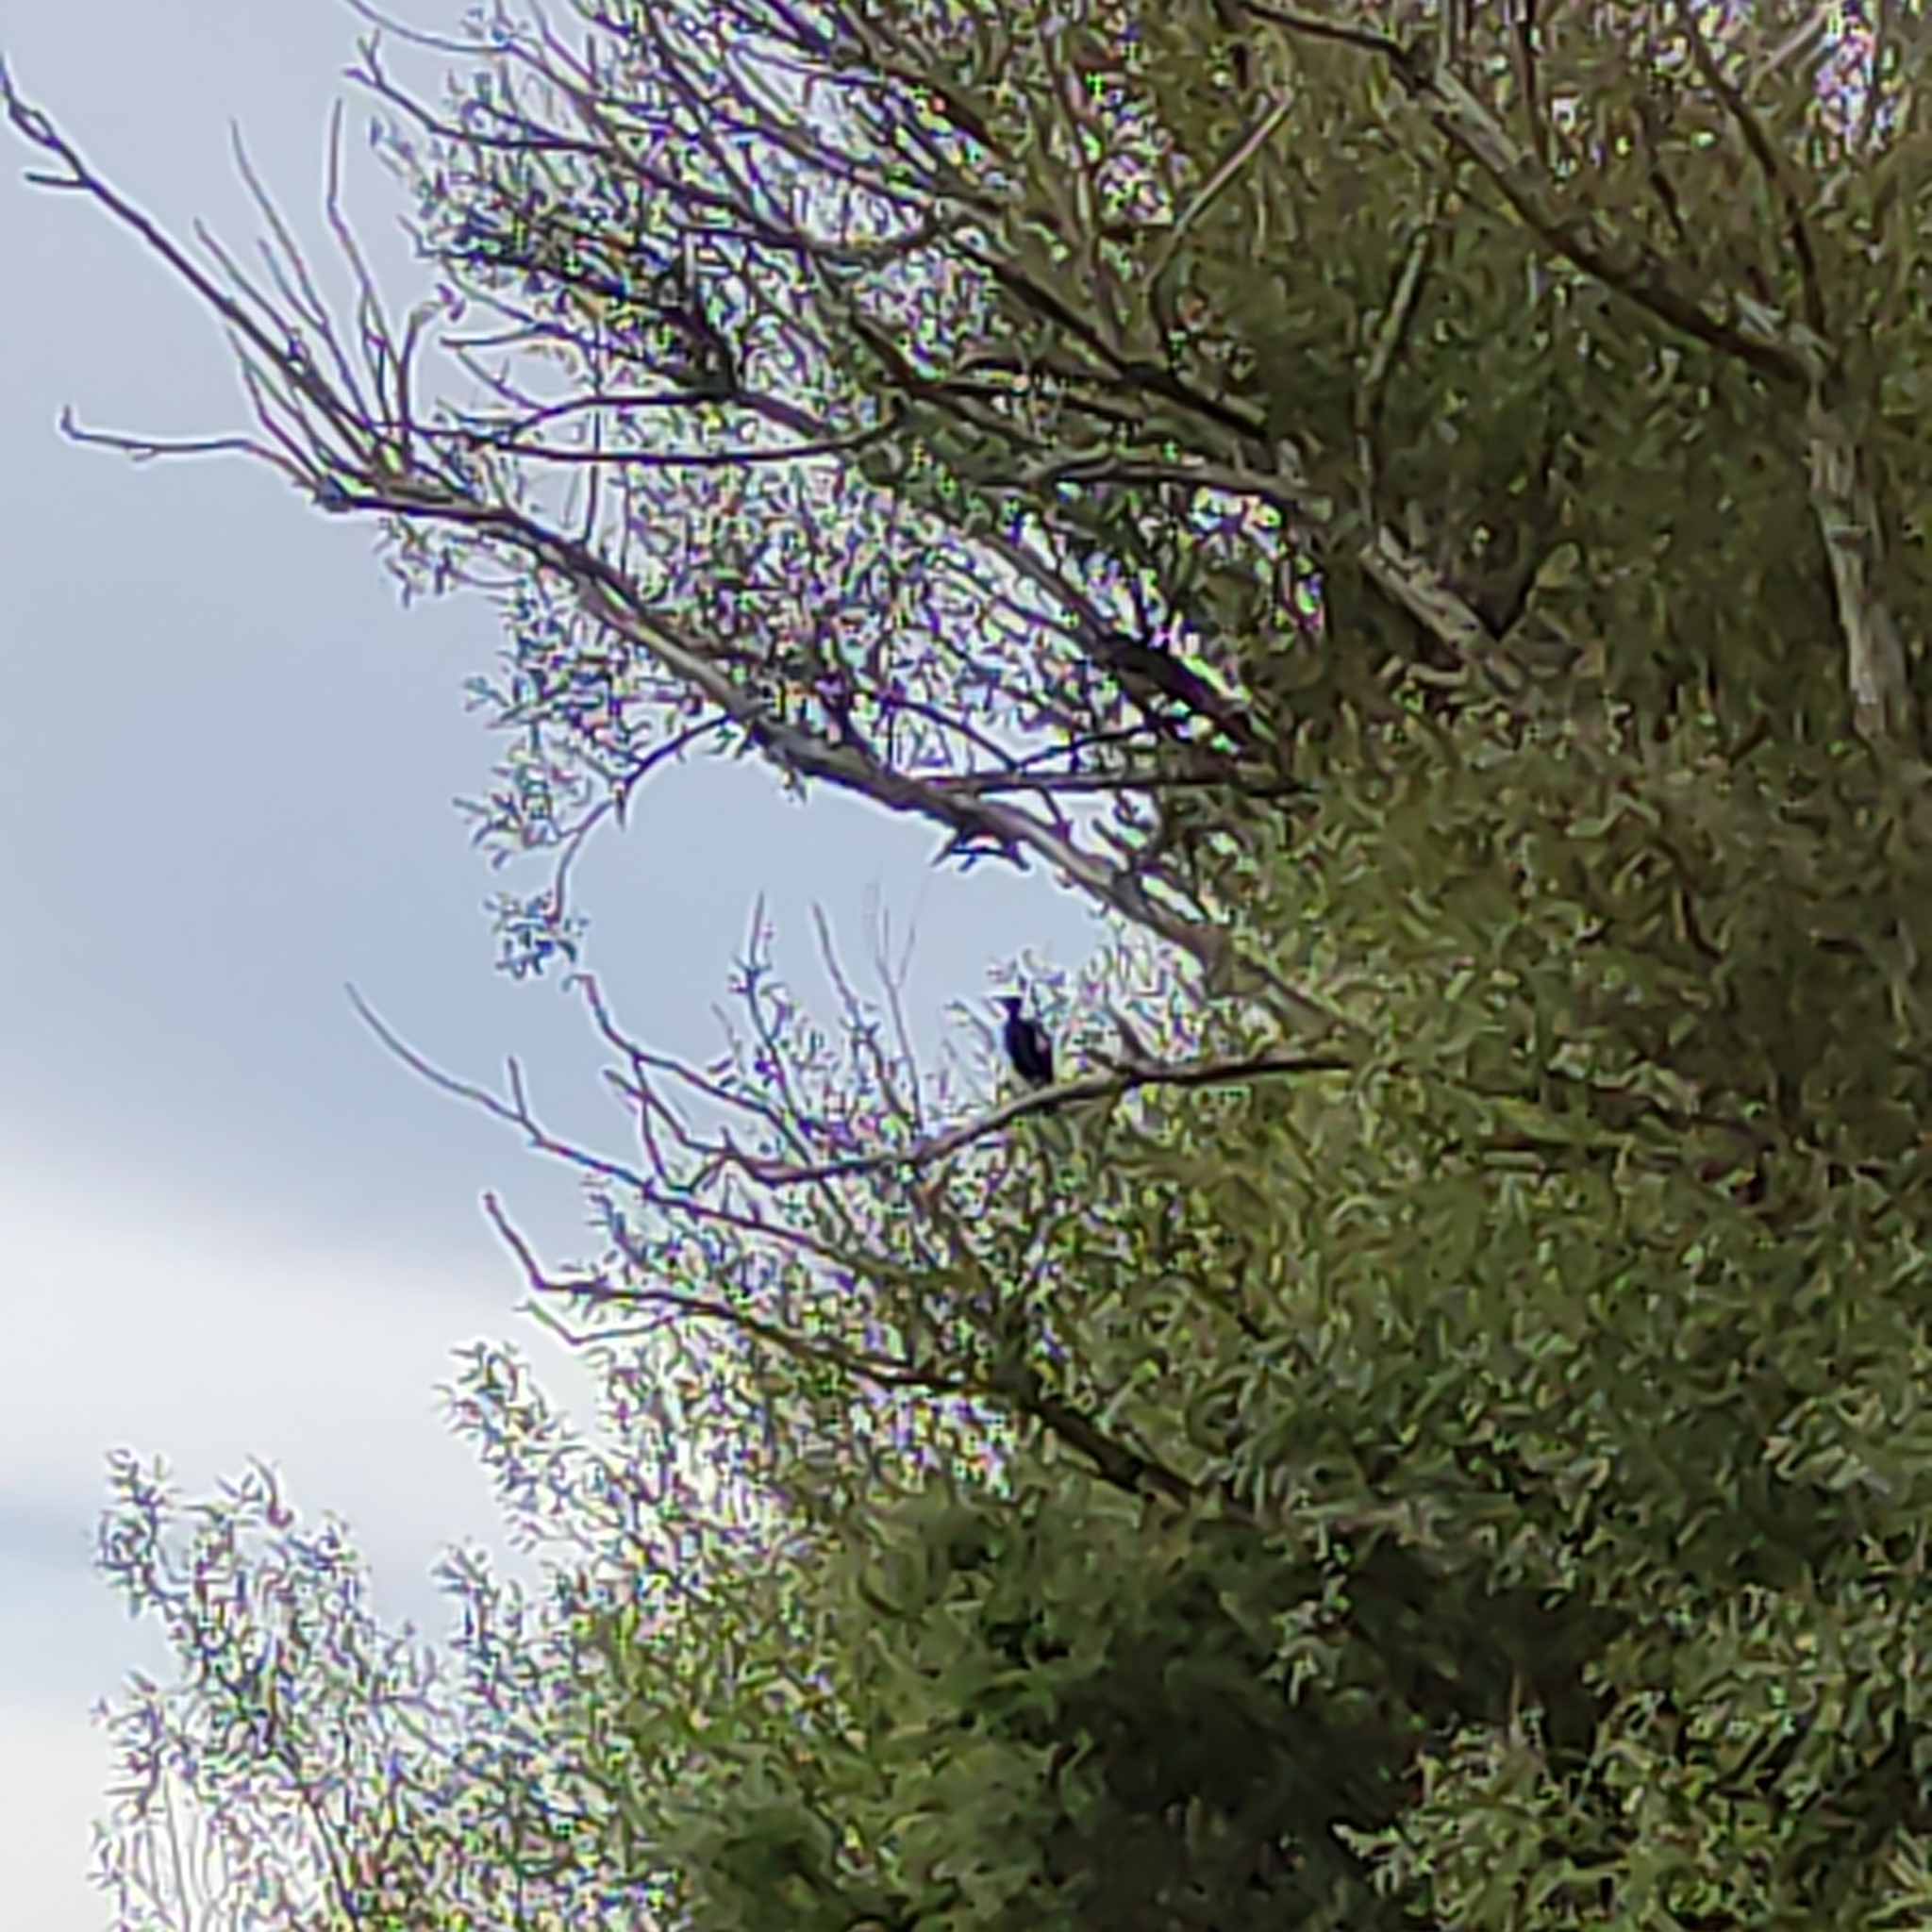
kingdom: Animalia
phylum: Chordata
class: Aves
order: Passeriformes
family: Cracticidae
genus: Gymnorhina
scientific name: Gymnorhina tibicen
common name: Australian magpie
